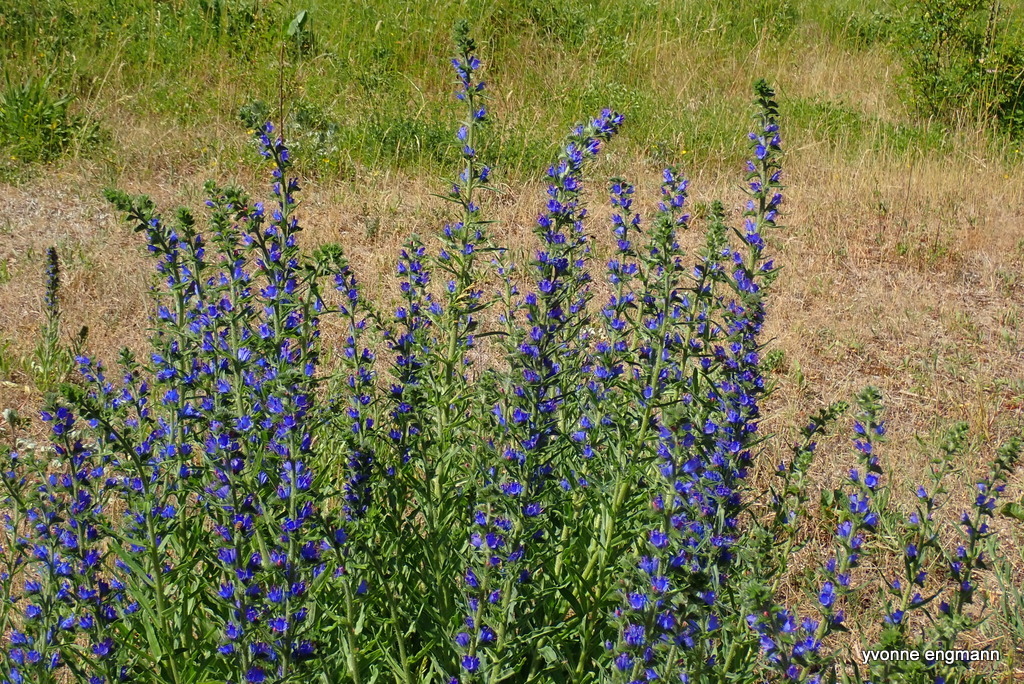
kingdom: Plantae
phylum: Tracheophyta
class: Magnoliopsida
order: Boraginales
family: Boraginaceae
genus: Echium
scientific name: Echium vulgare
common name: Common viper's bugloss
